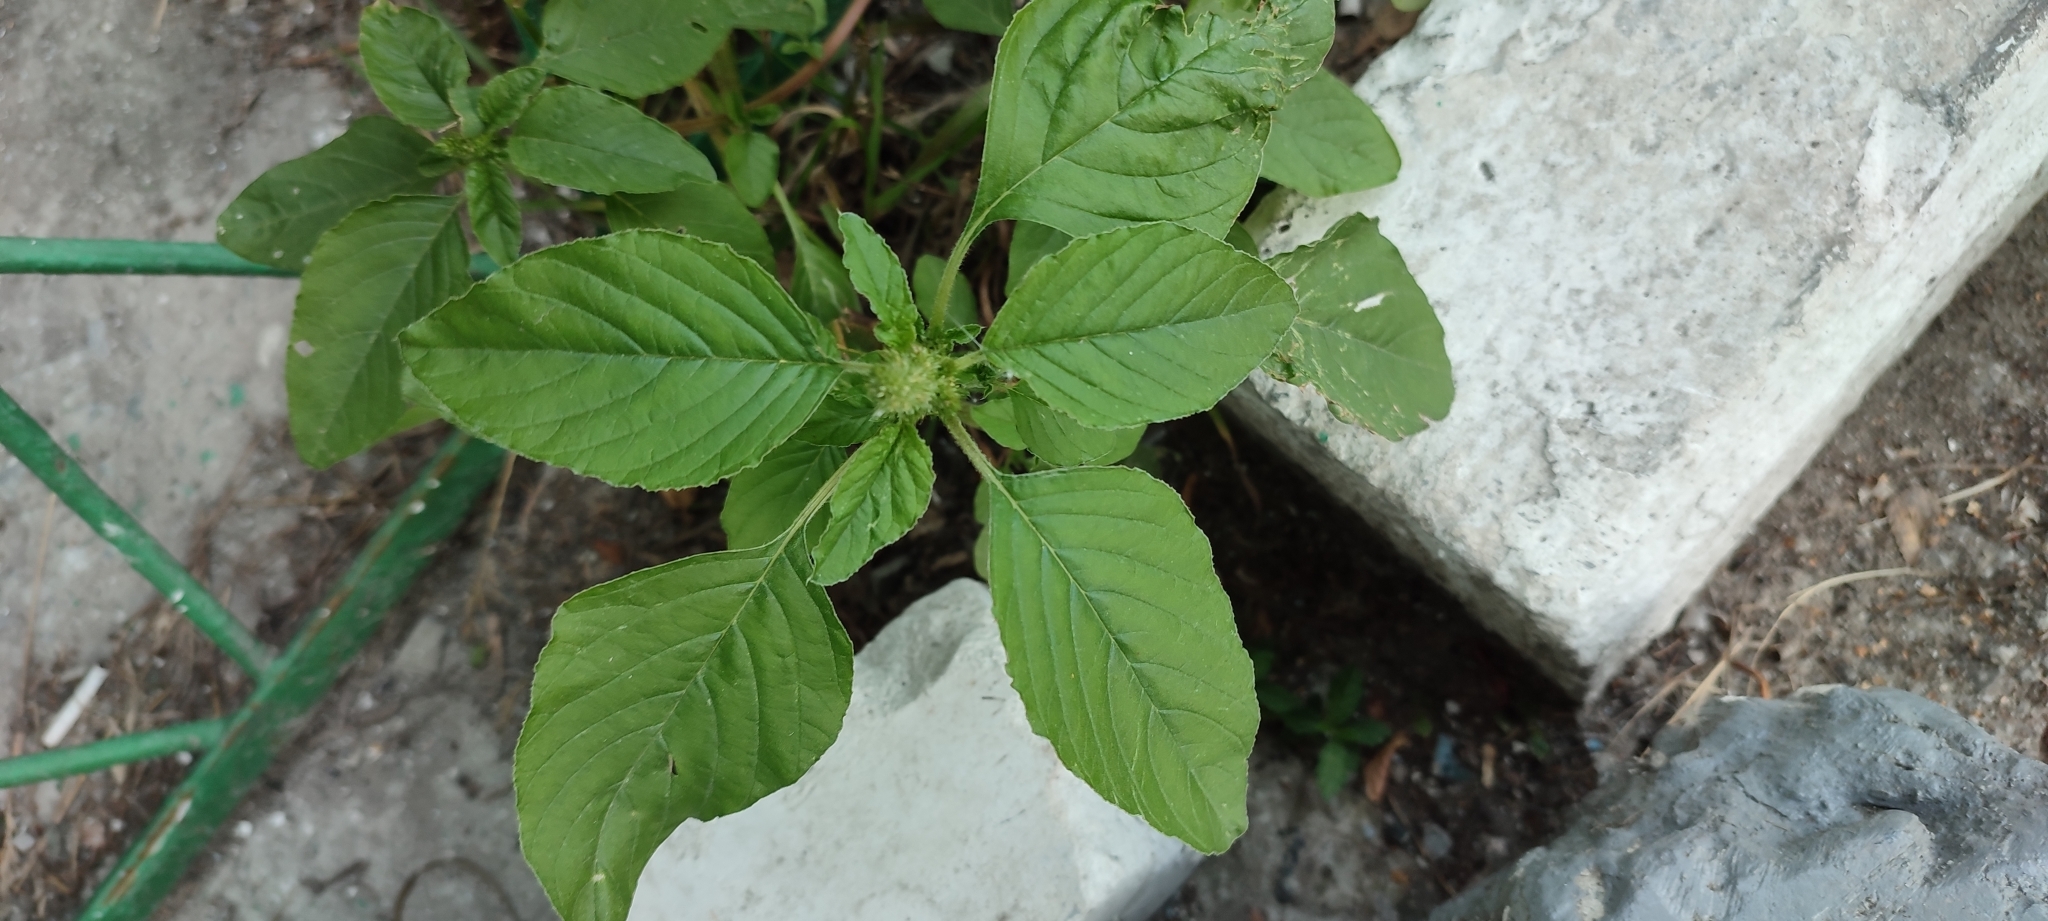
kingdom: Plantae
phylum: Tracheophyta
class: Magnoliopsida
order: Caryophyllales
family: Amaranthaceae
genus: Amaranthus
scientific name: Amaranthus retroflexus
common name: Redroot amaranth
